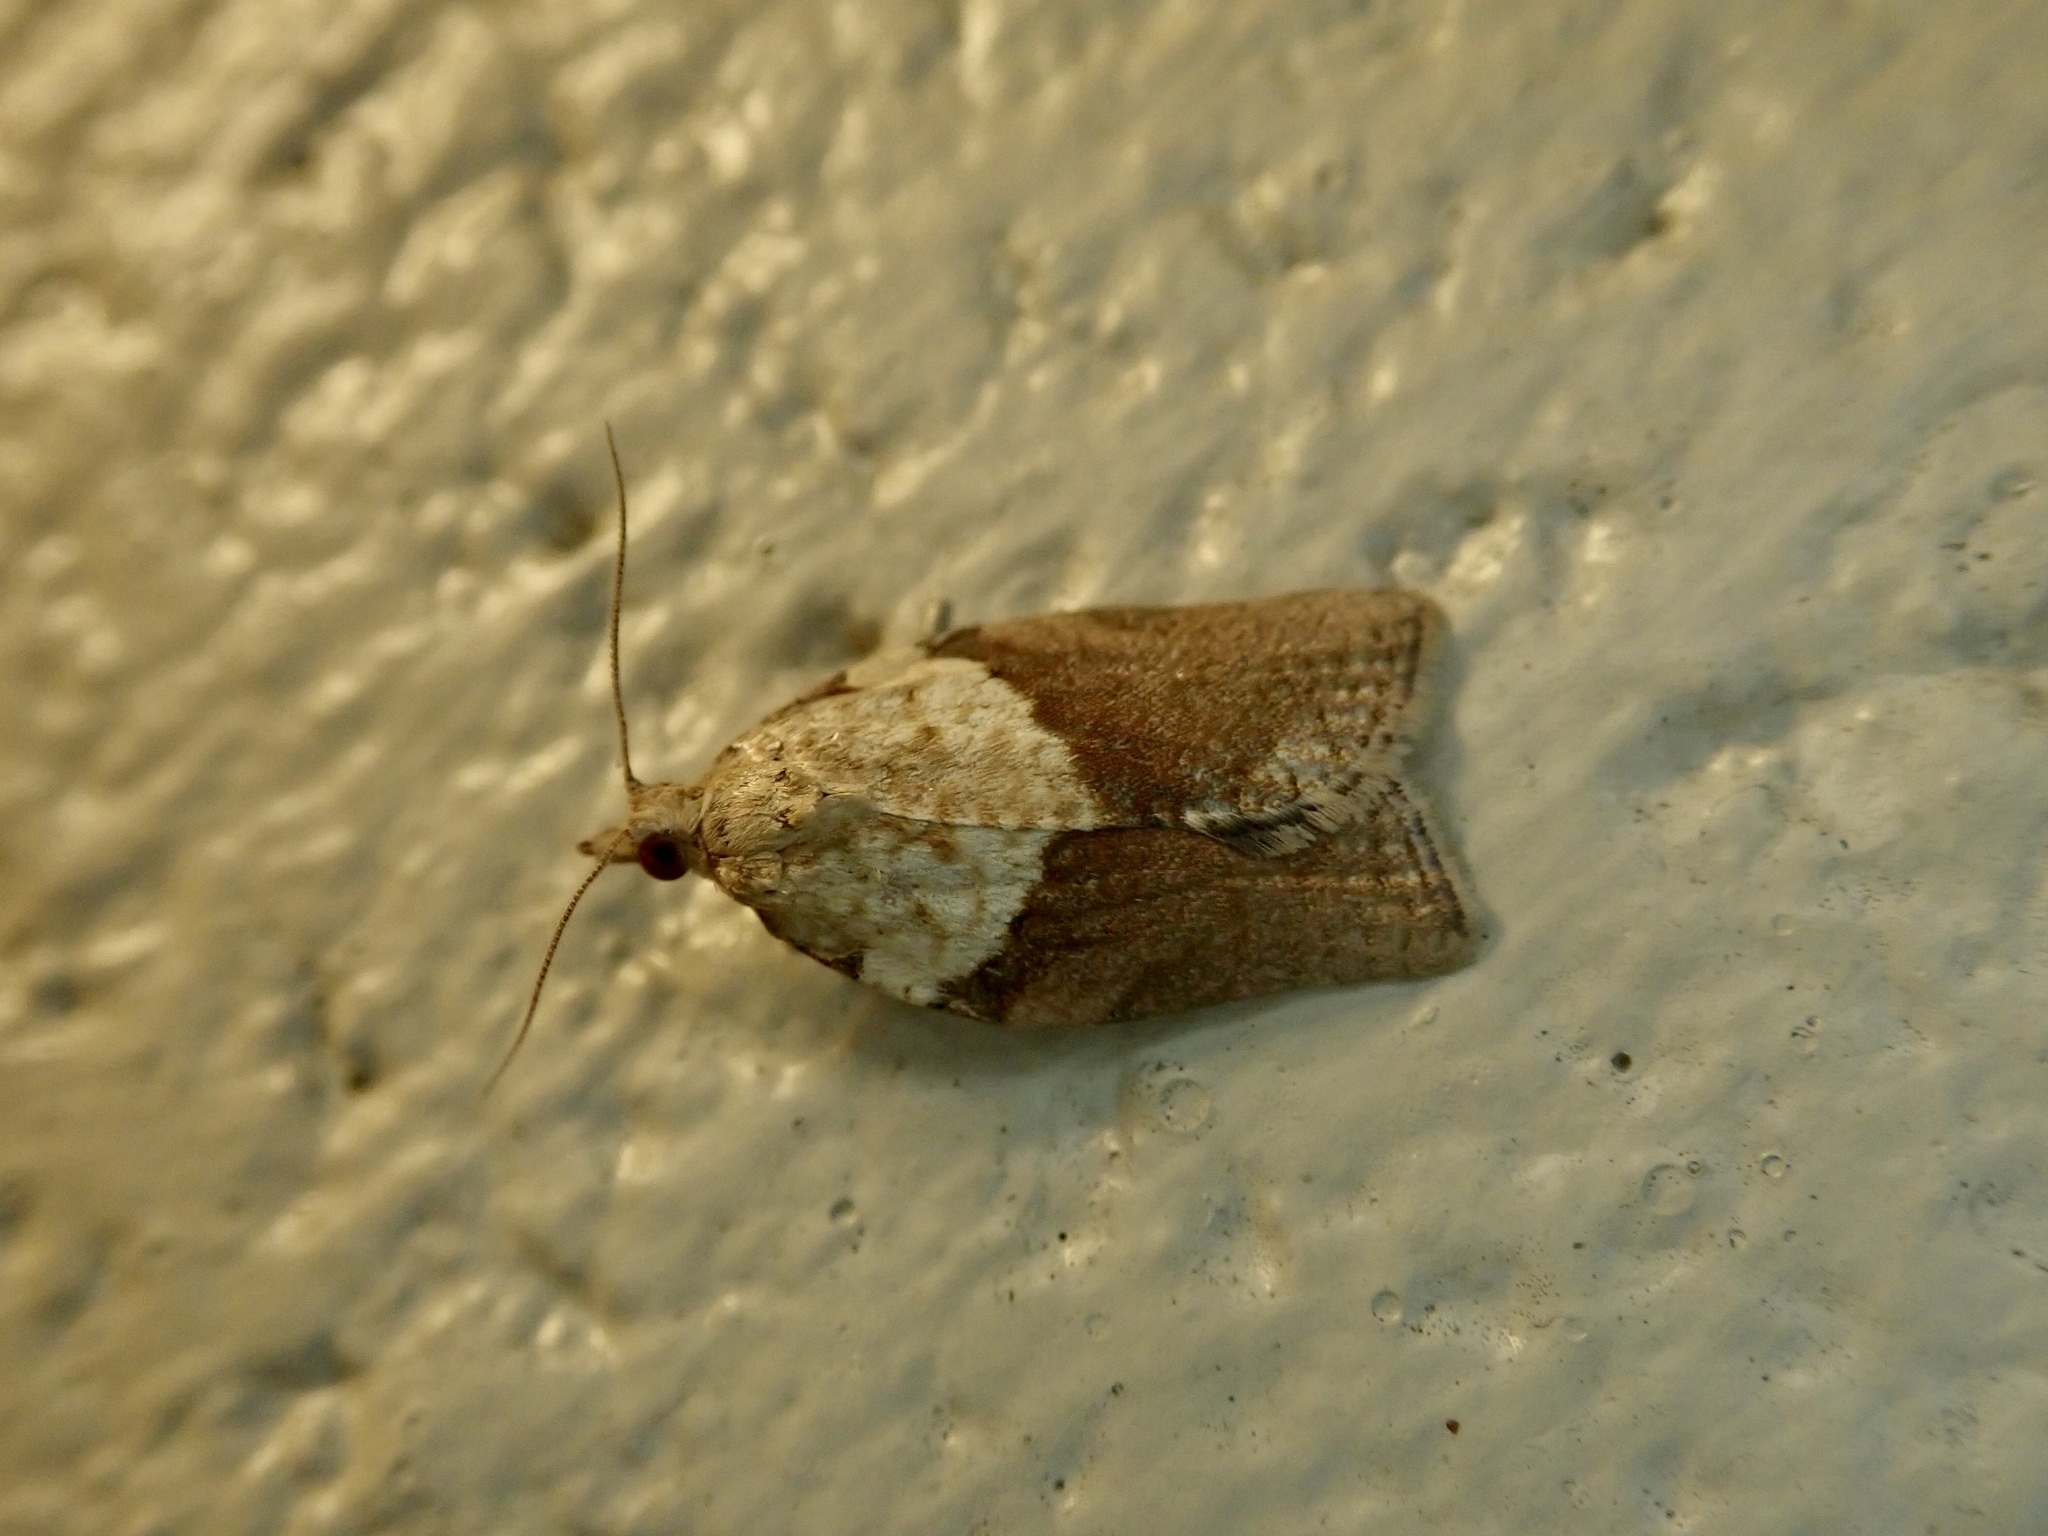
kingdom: Animalia
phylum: Arthropoda
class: Insecta
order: Lepidoptera
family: Tortricidae
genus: Epiphyas
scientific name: Epiphyas postvittana
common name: Light brown apple moth
